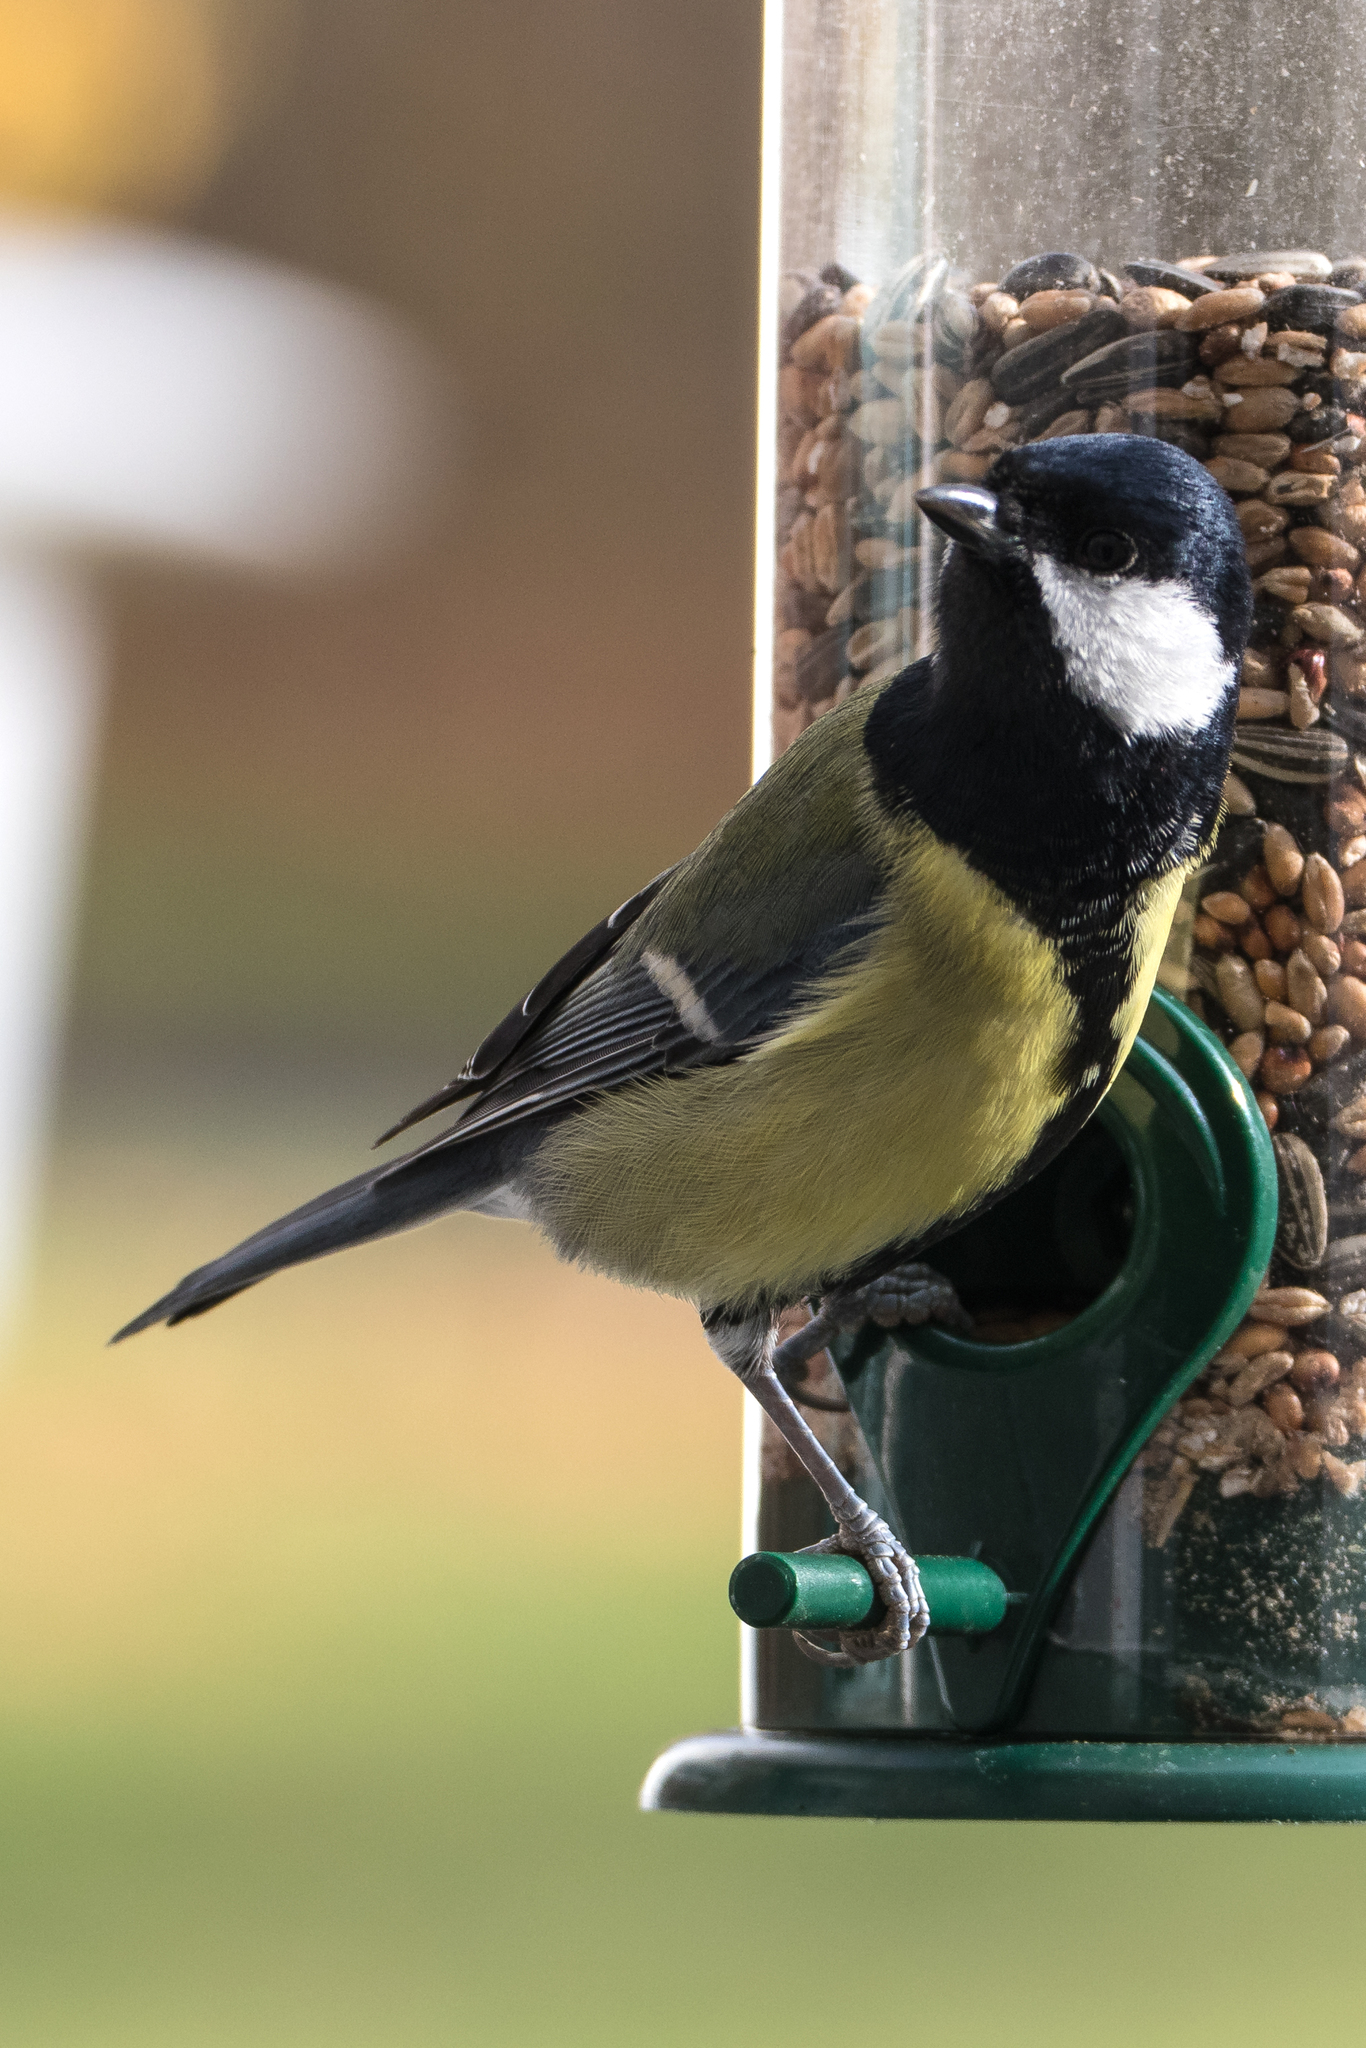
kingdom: Animalia
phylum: Chordata
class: Aves
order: Passeriformes
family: Paridae
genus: Parus
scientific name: Parus major
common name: Great tit
